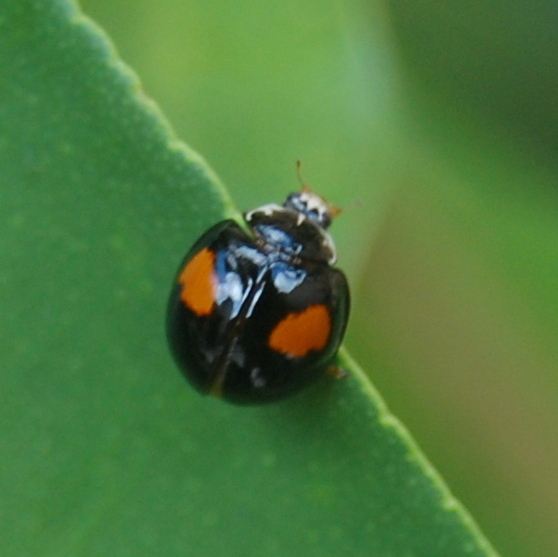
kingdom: Animalia
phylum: Arthropoda
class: Insecta
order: Coleoptera
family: Coccinellidae
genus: Olla
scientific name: Olla v-nigrum
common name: Ashy gray lady beetle
